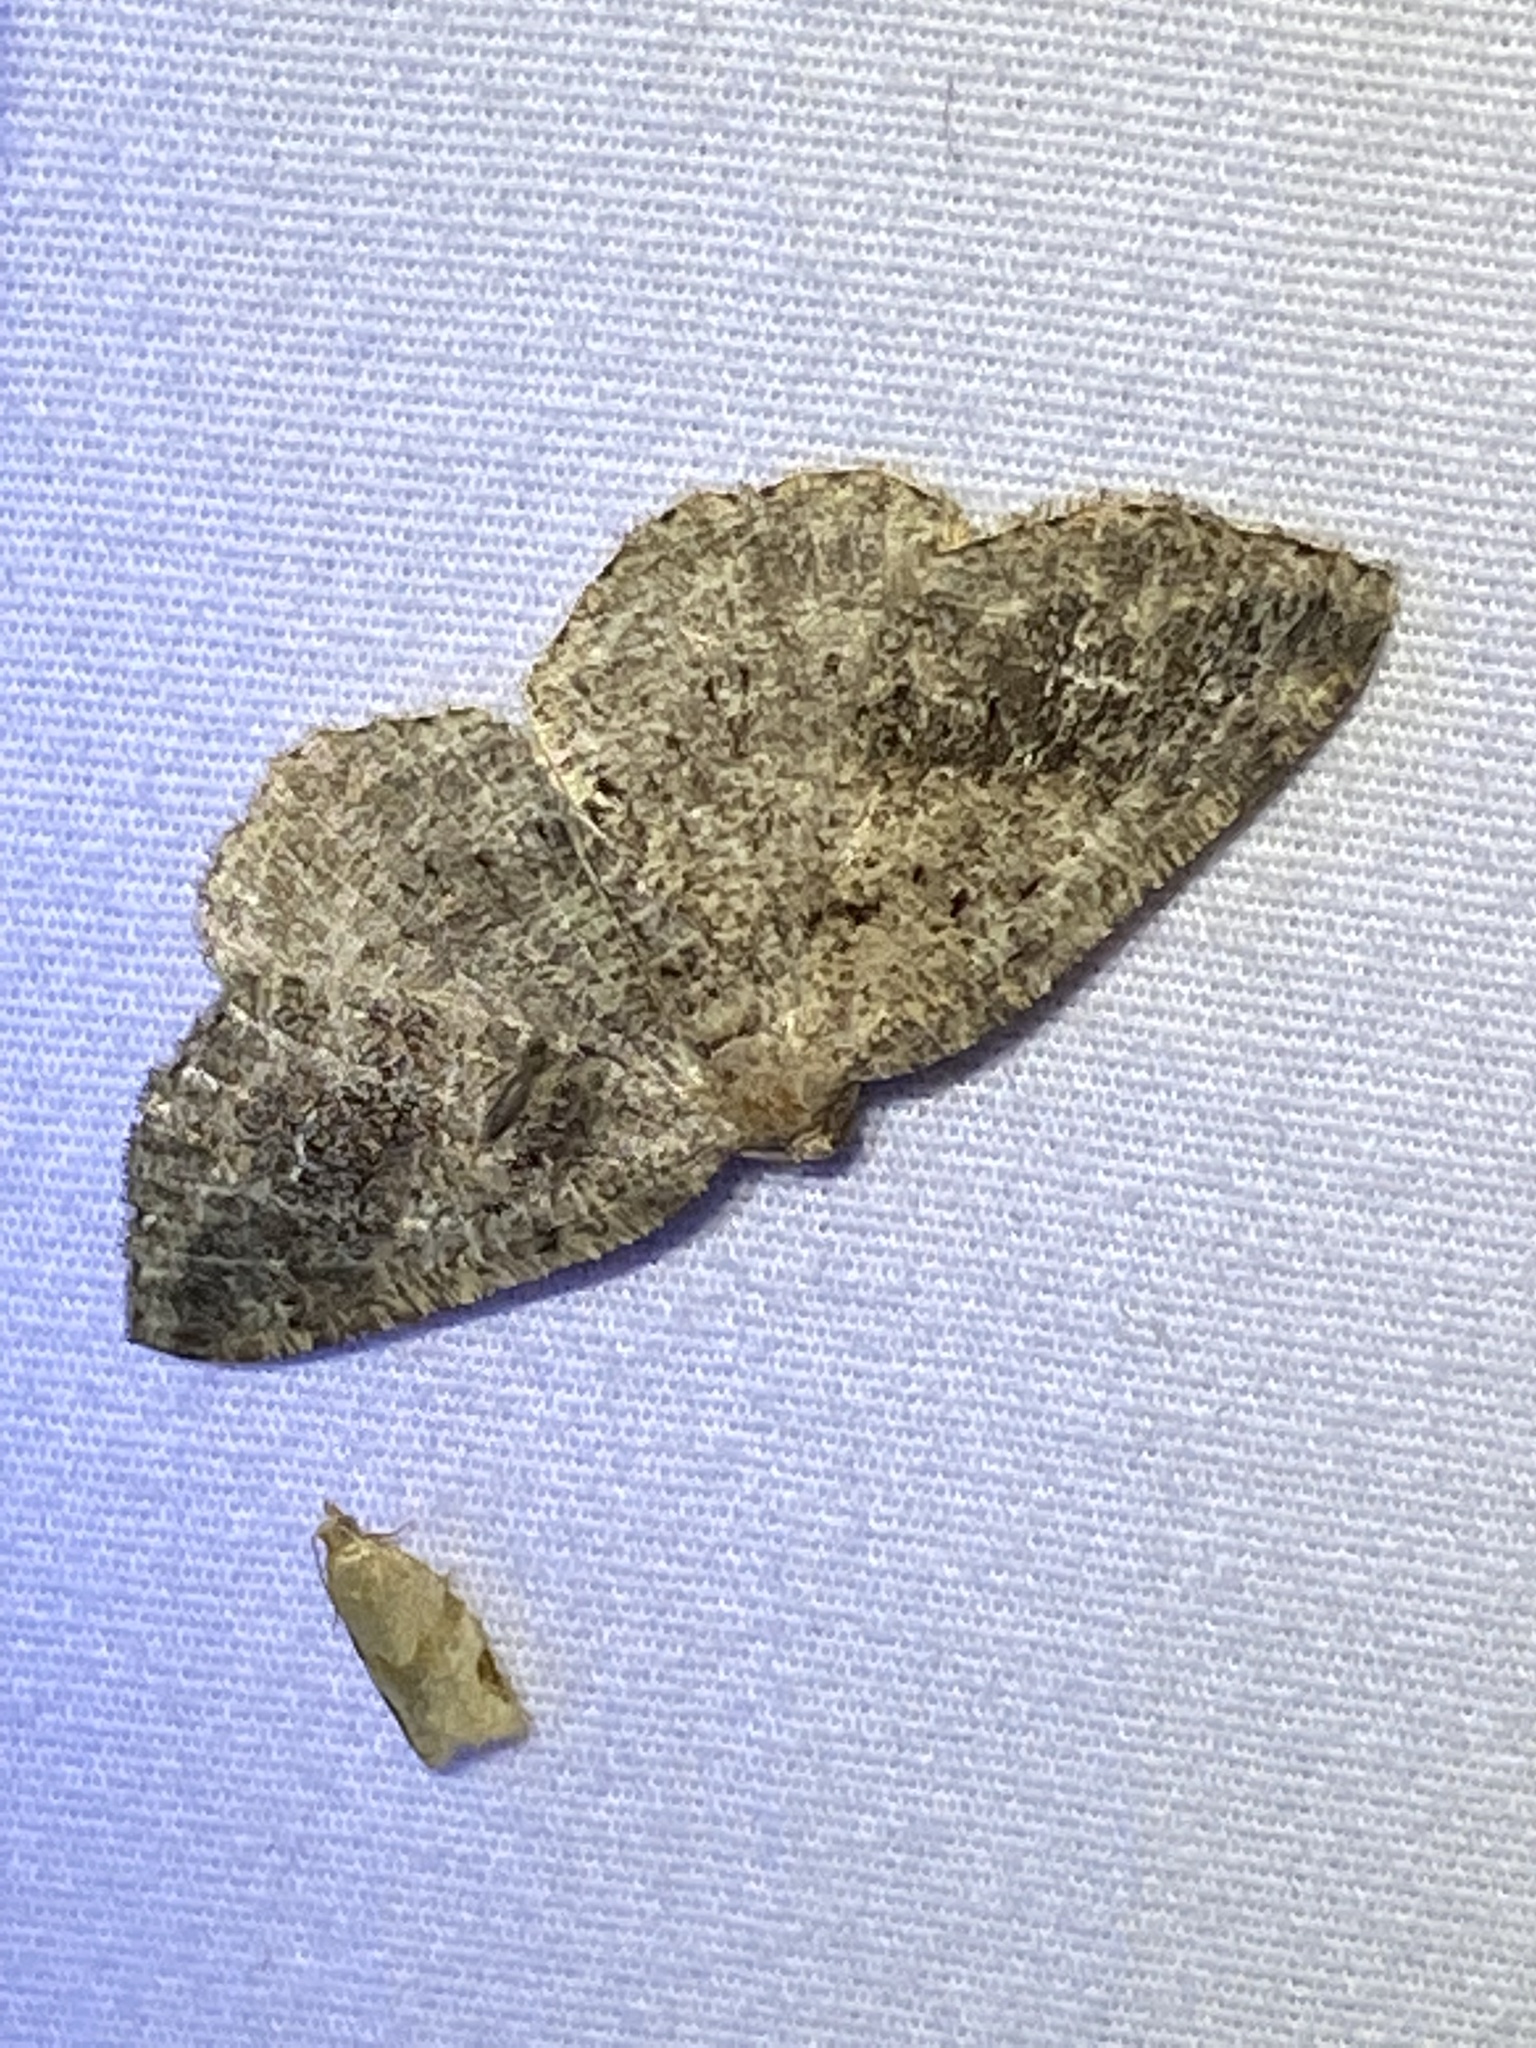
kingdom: Animalia
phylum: Arthropoda
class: Insecta
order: Lepidoptera
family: Geometridae
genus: Homochlodes
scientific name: Homochlodes fritillaria
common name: Pale homochlodes
